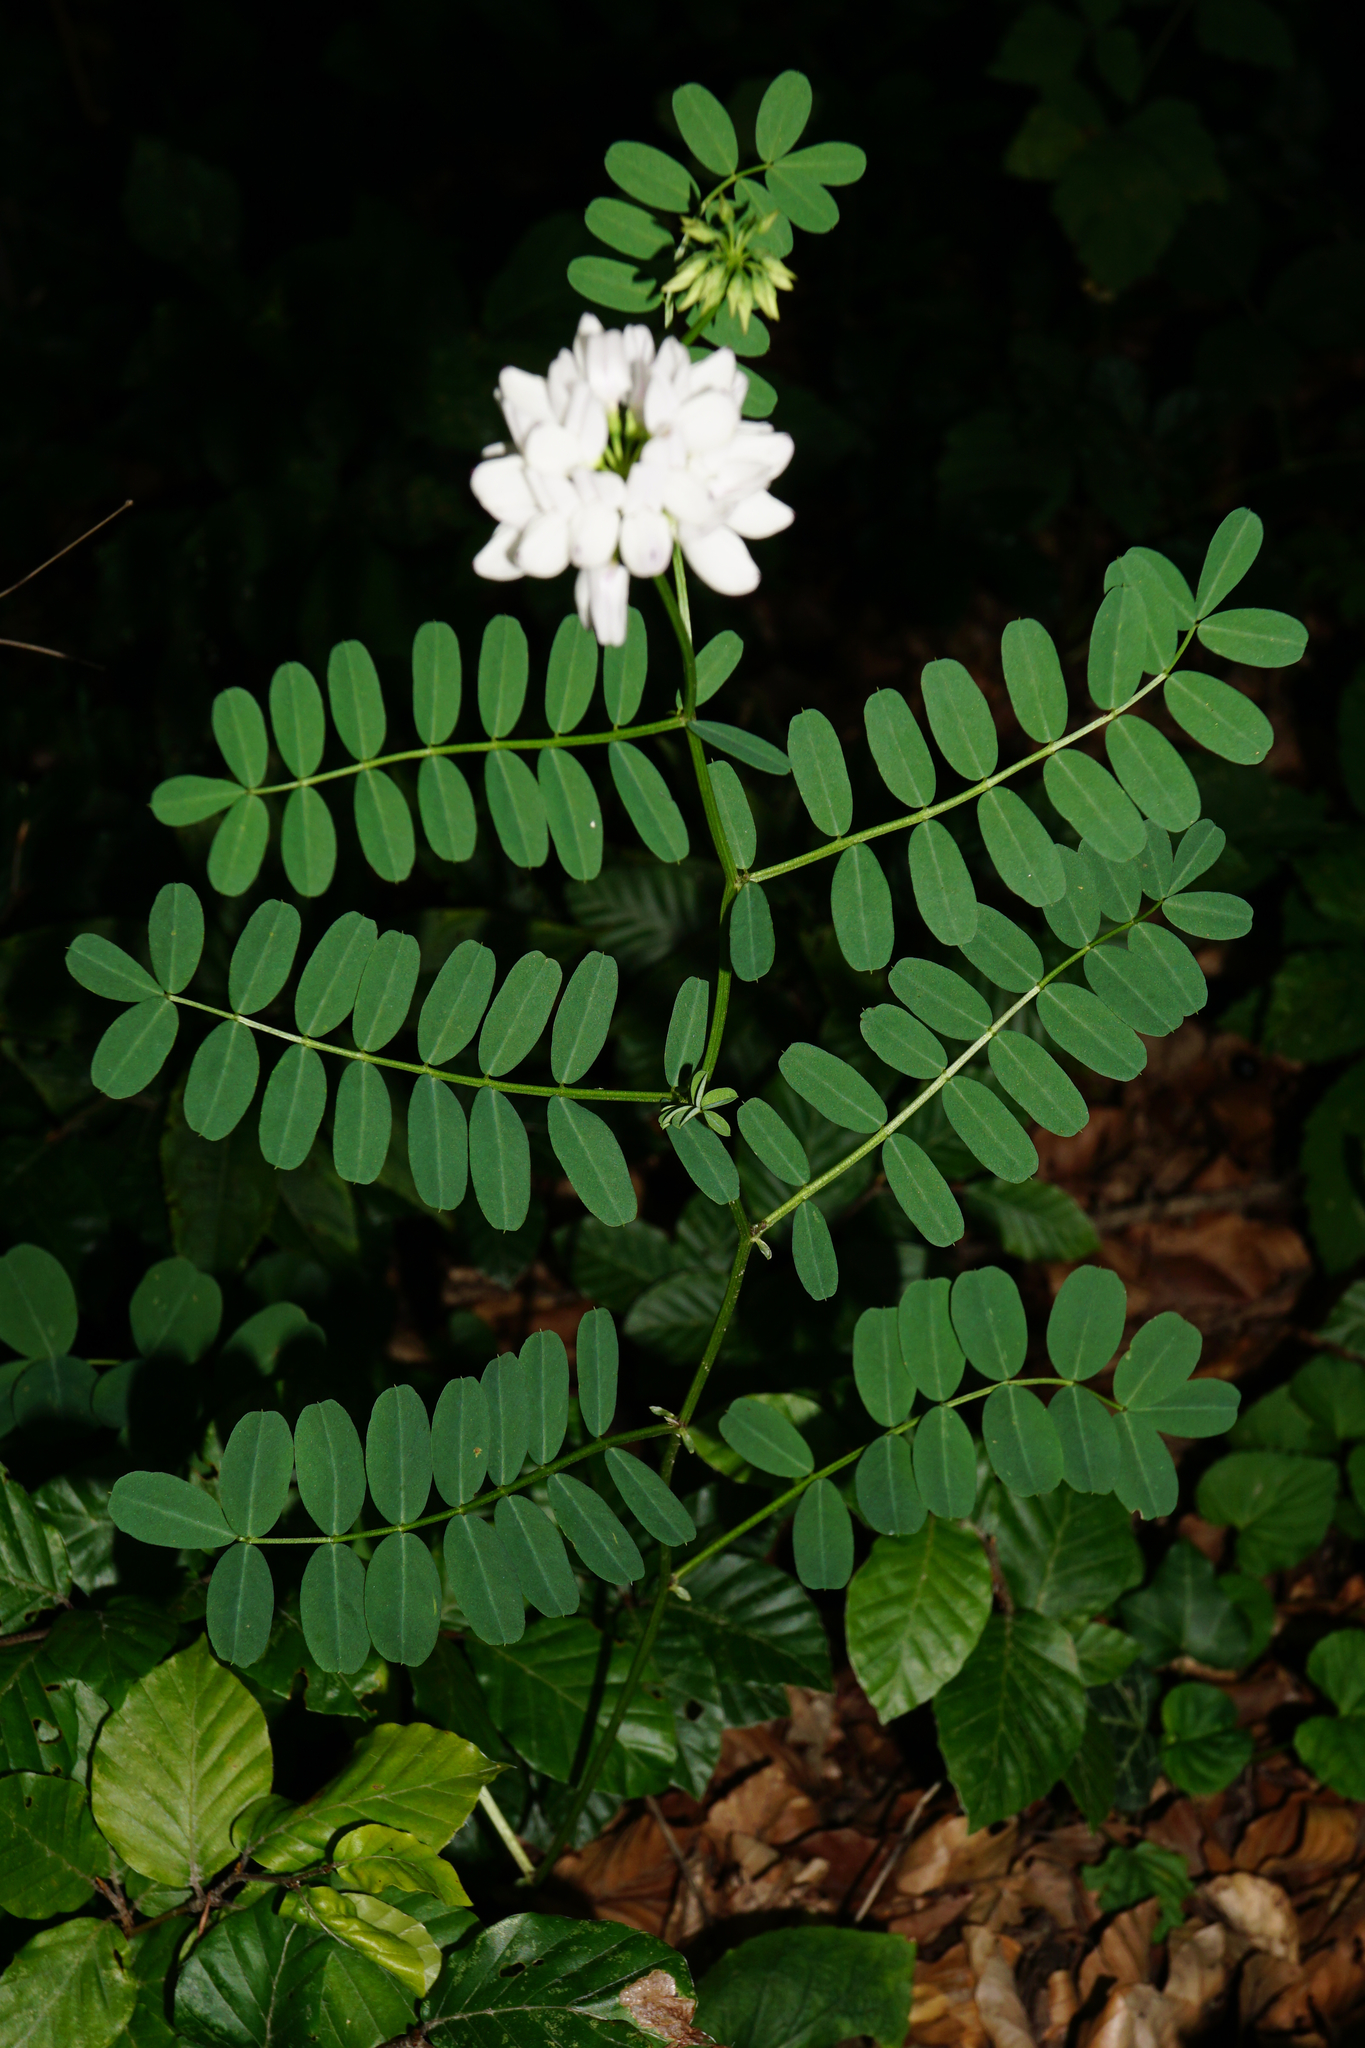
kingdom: Plantae
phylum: Tracheophyta
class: Magnoliopsida
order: Fabales
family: Fabaceae
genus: Coronilla
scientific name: Coronilla varia
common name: Crownvetch
